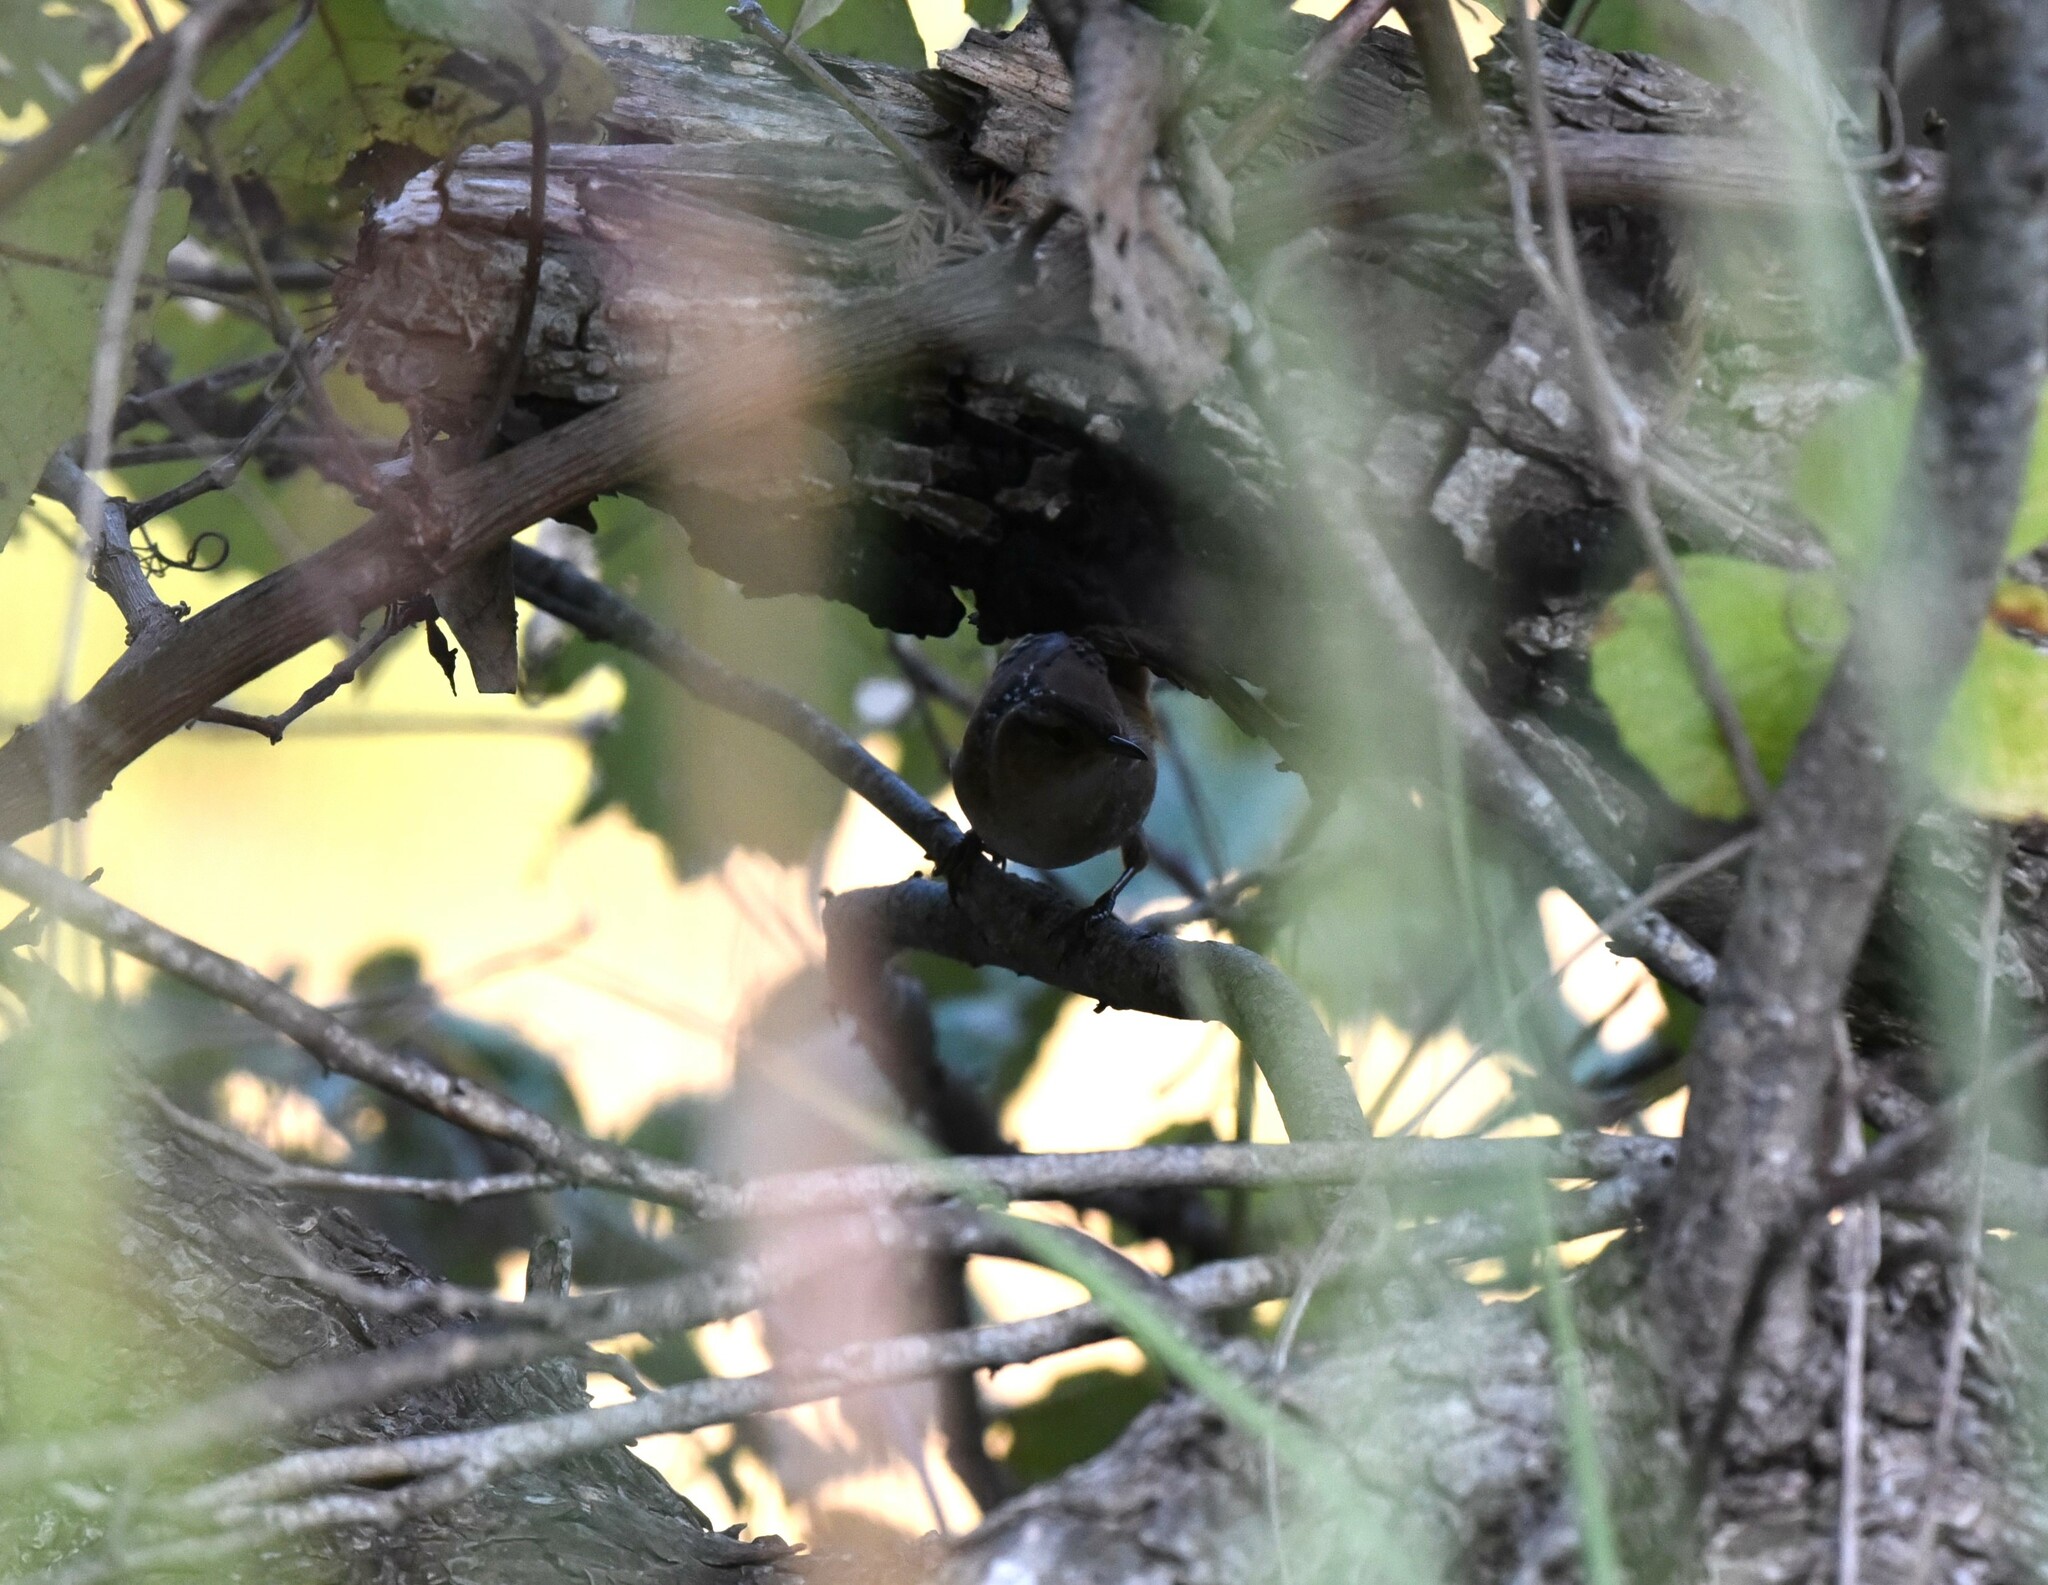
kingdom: Animalia
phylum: Chordata
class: Aves
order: Passeriformes
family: Troglodytidae
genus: Cistothorus
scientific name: Cistothorus palustris
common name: Marsh wren
